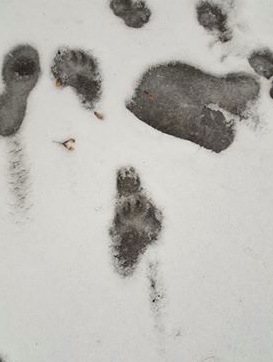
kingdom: Animalia
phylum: Chordata
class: Mammalia
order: Carnivora
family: Ursidae
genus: Ursus
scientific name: Ursus americanus
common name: American black bear
